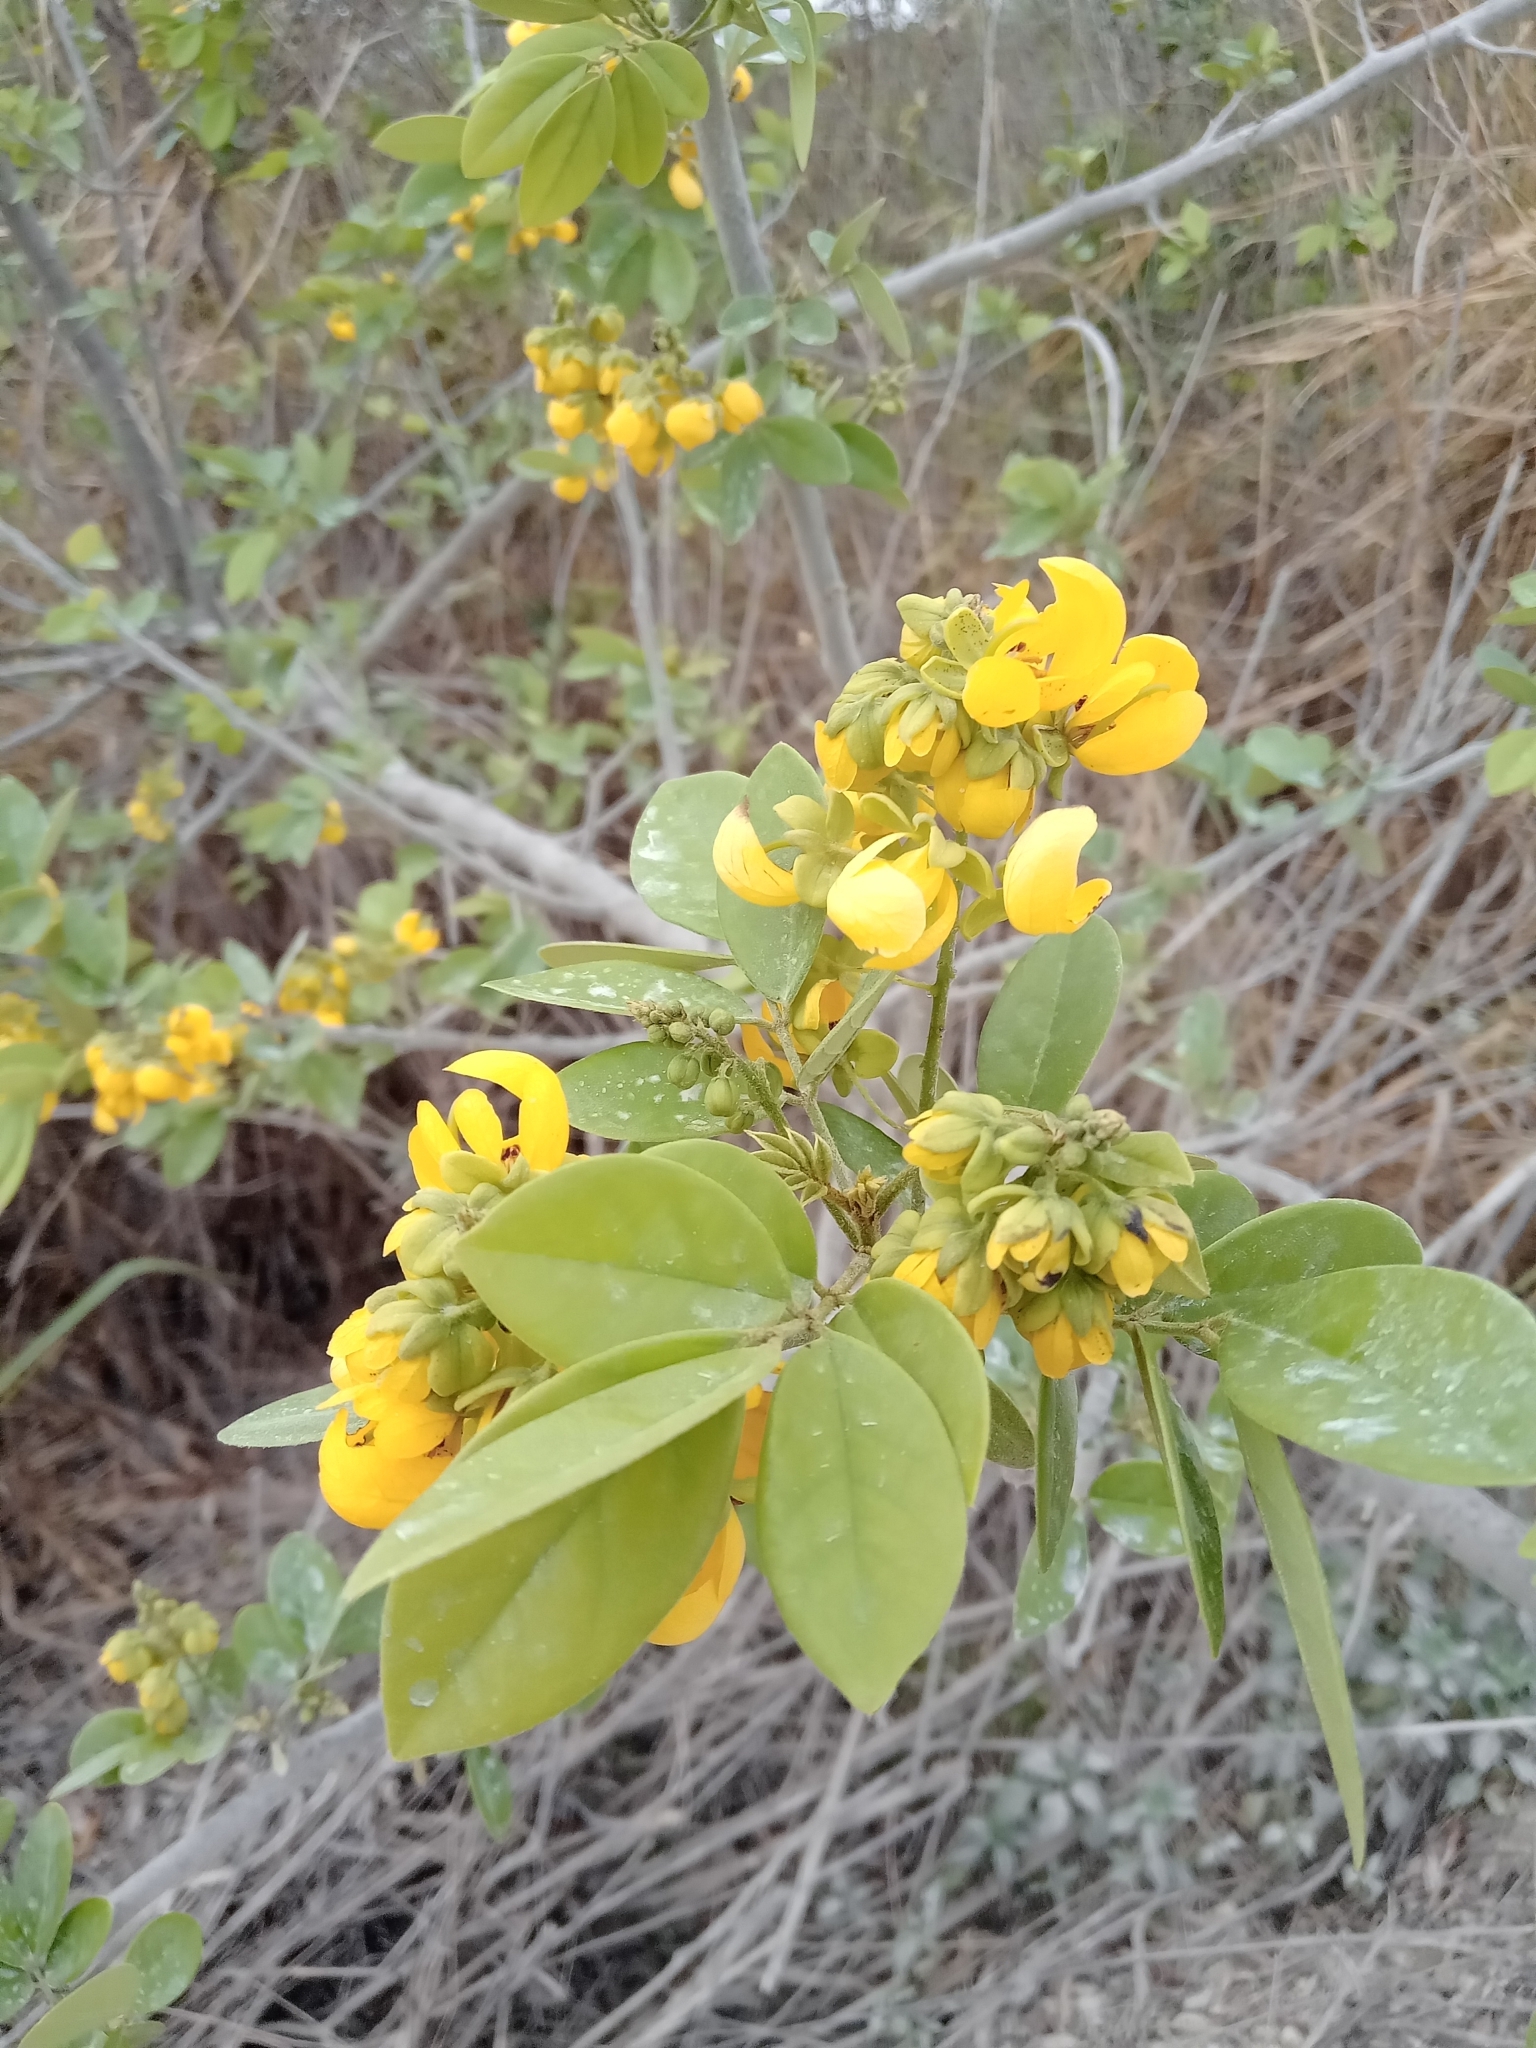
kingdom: Plantae
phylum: Tracheophyta
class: Magnoliopsida
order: Fabales
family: Fabaceae
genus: Senna
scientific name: Senna atomaria
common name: Flor de san jose
